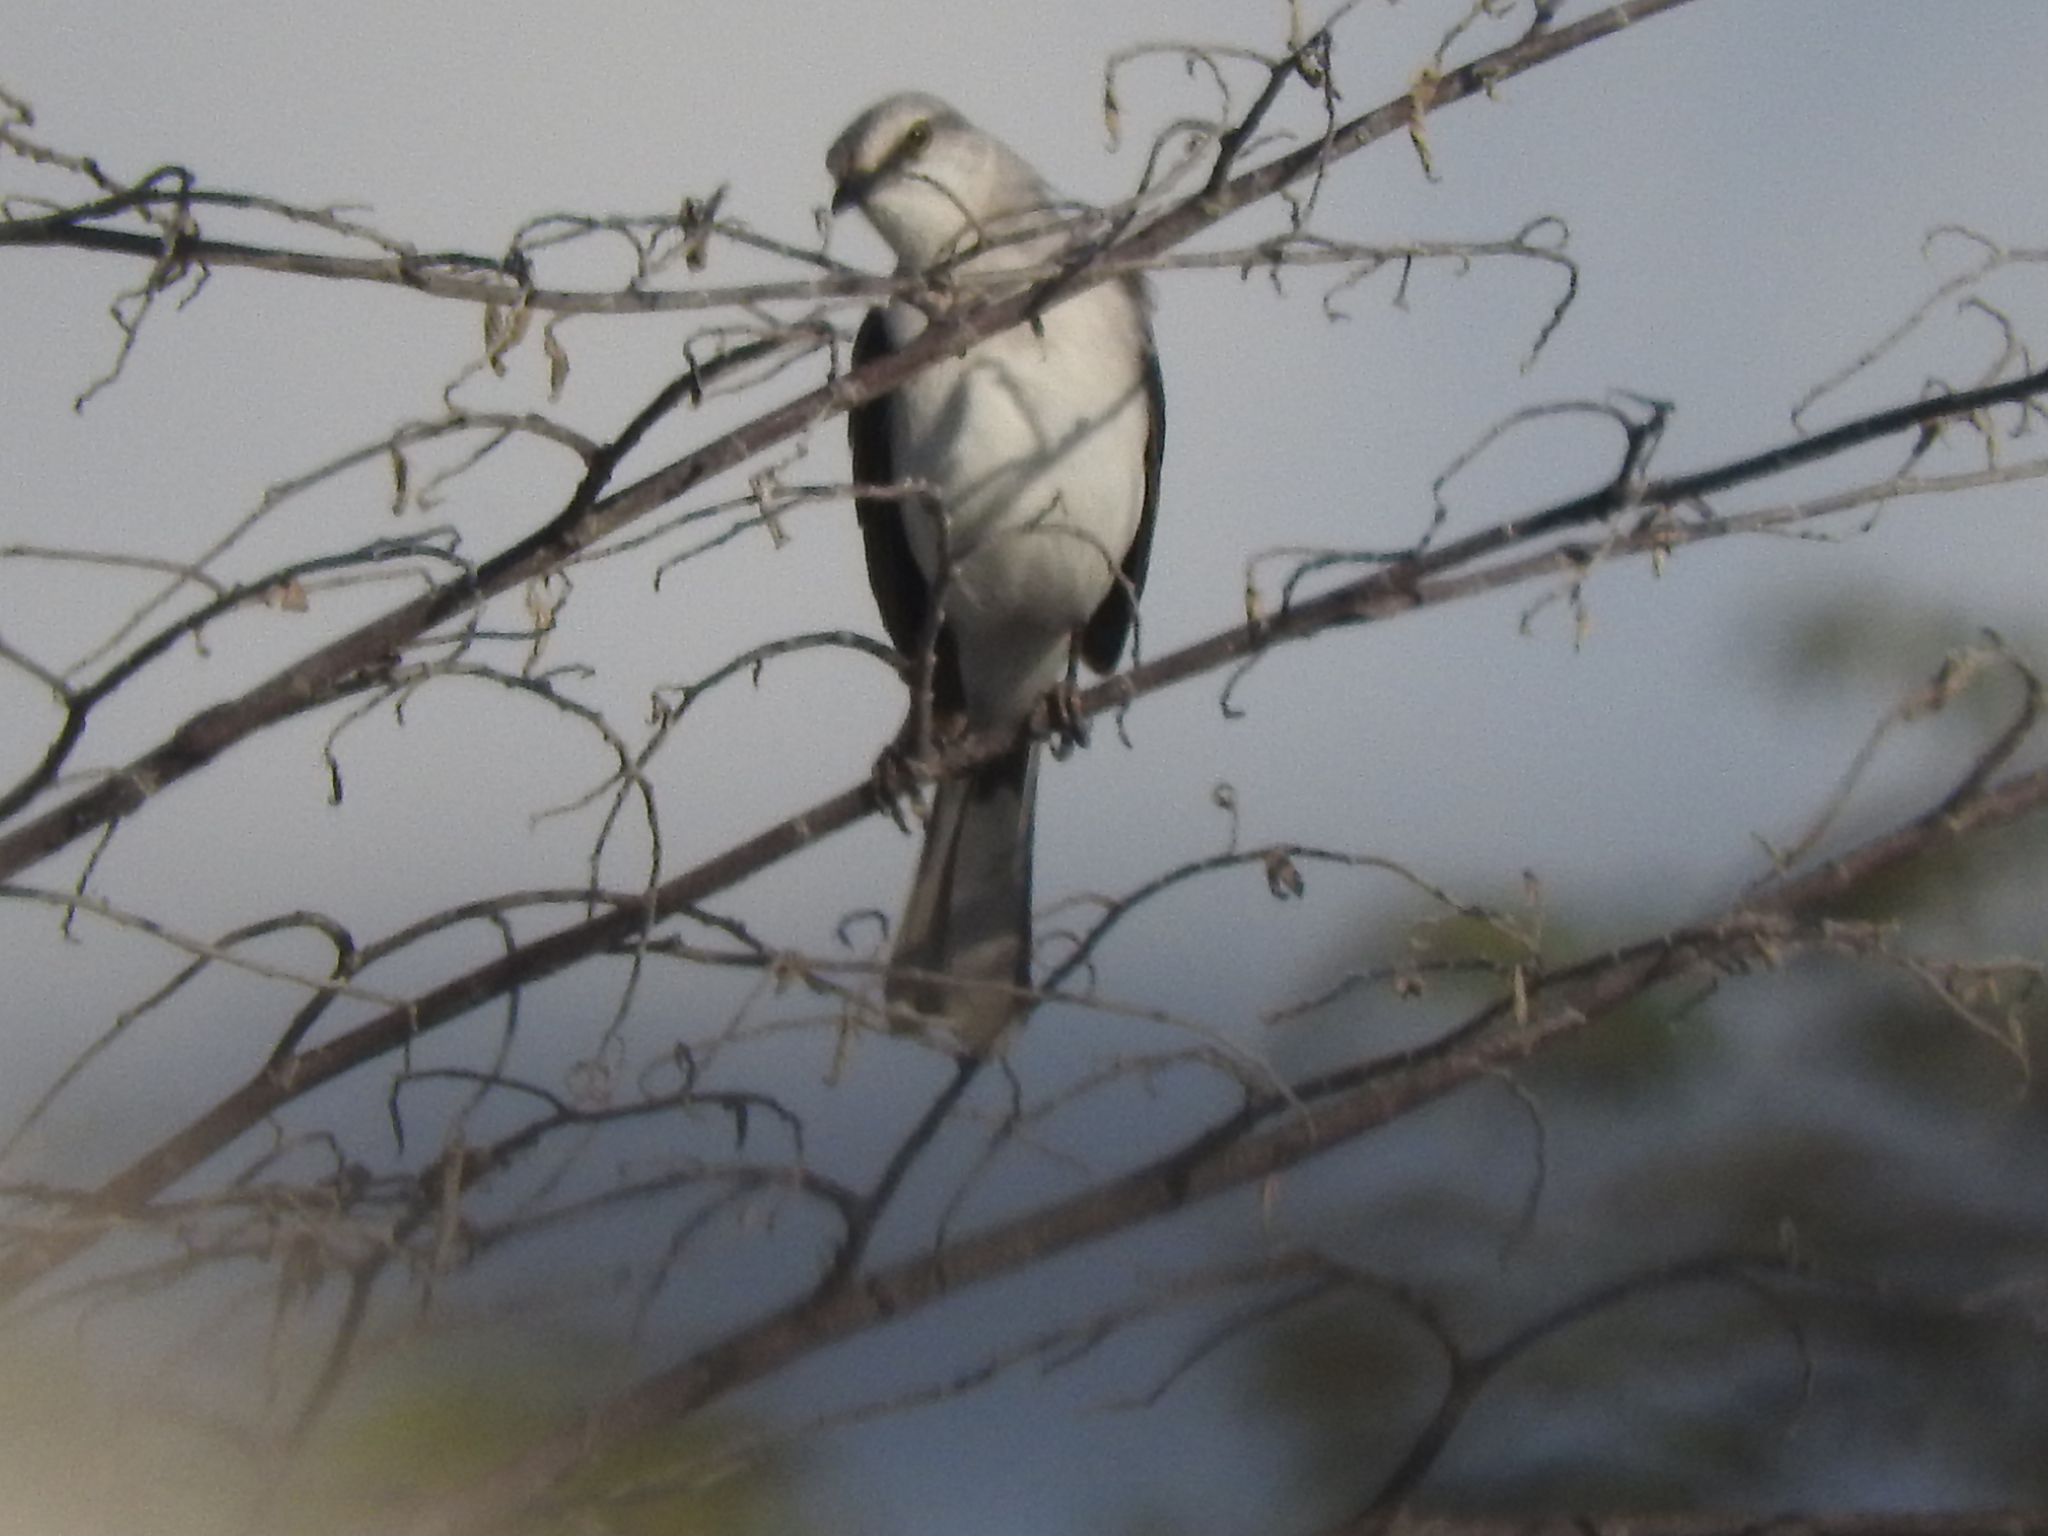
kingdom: Animalia
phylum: Chordata
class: Aves
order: Passeriformes
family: Mimidae
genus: Mimus
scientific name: Mimus gilvus
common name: Tropical mockingbird
